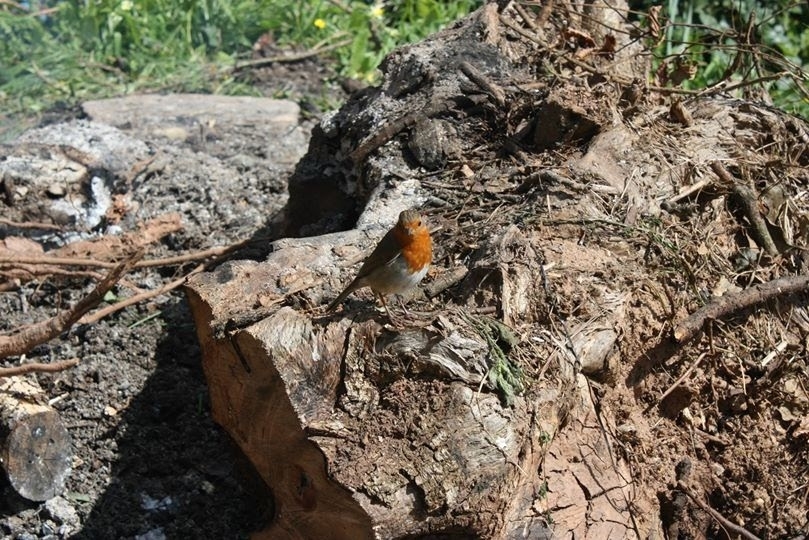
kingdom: Animalia
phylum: Chordata
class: Aves
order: Passeriformes
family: Muscicapidae
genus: Erithacus
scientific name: Erithacus rubecula
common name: European robin
